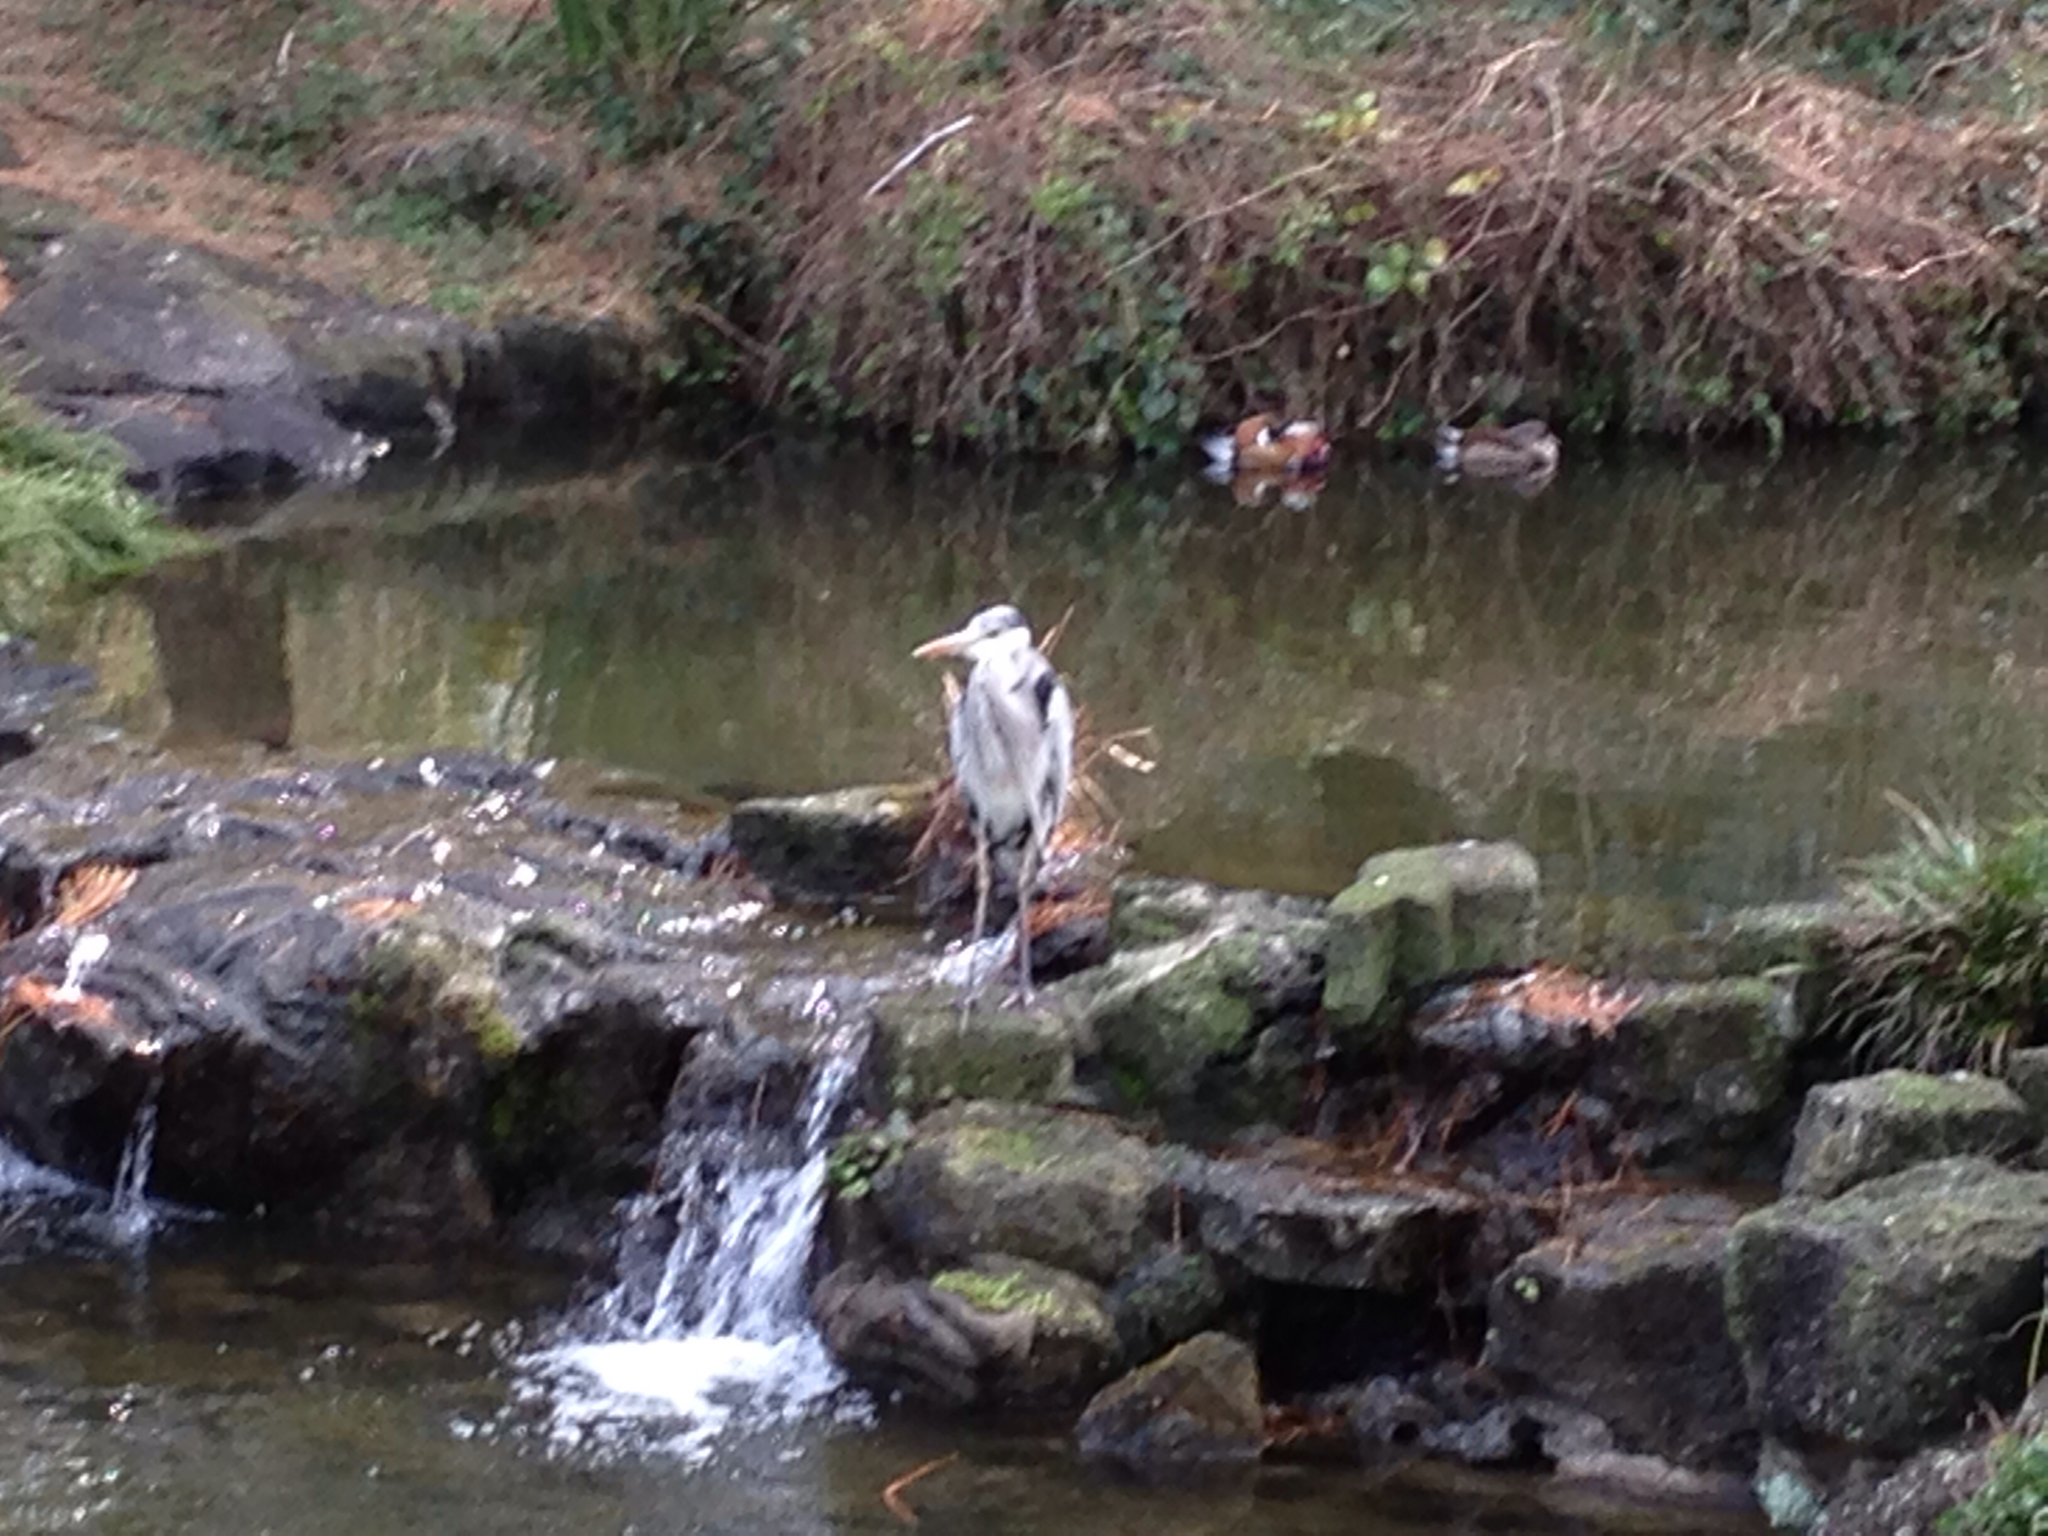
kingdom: Animalia
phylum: Chordata
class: Aves
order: Pelecaniformes
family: Ardeidae
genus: Ardea
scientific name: Ardea cinerea
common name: Grey heron
